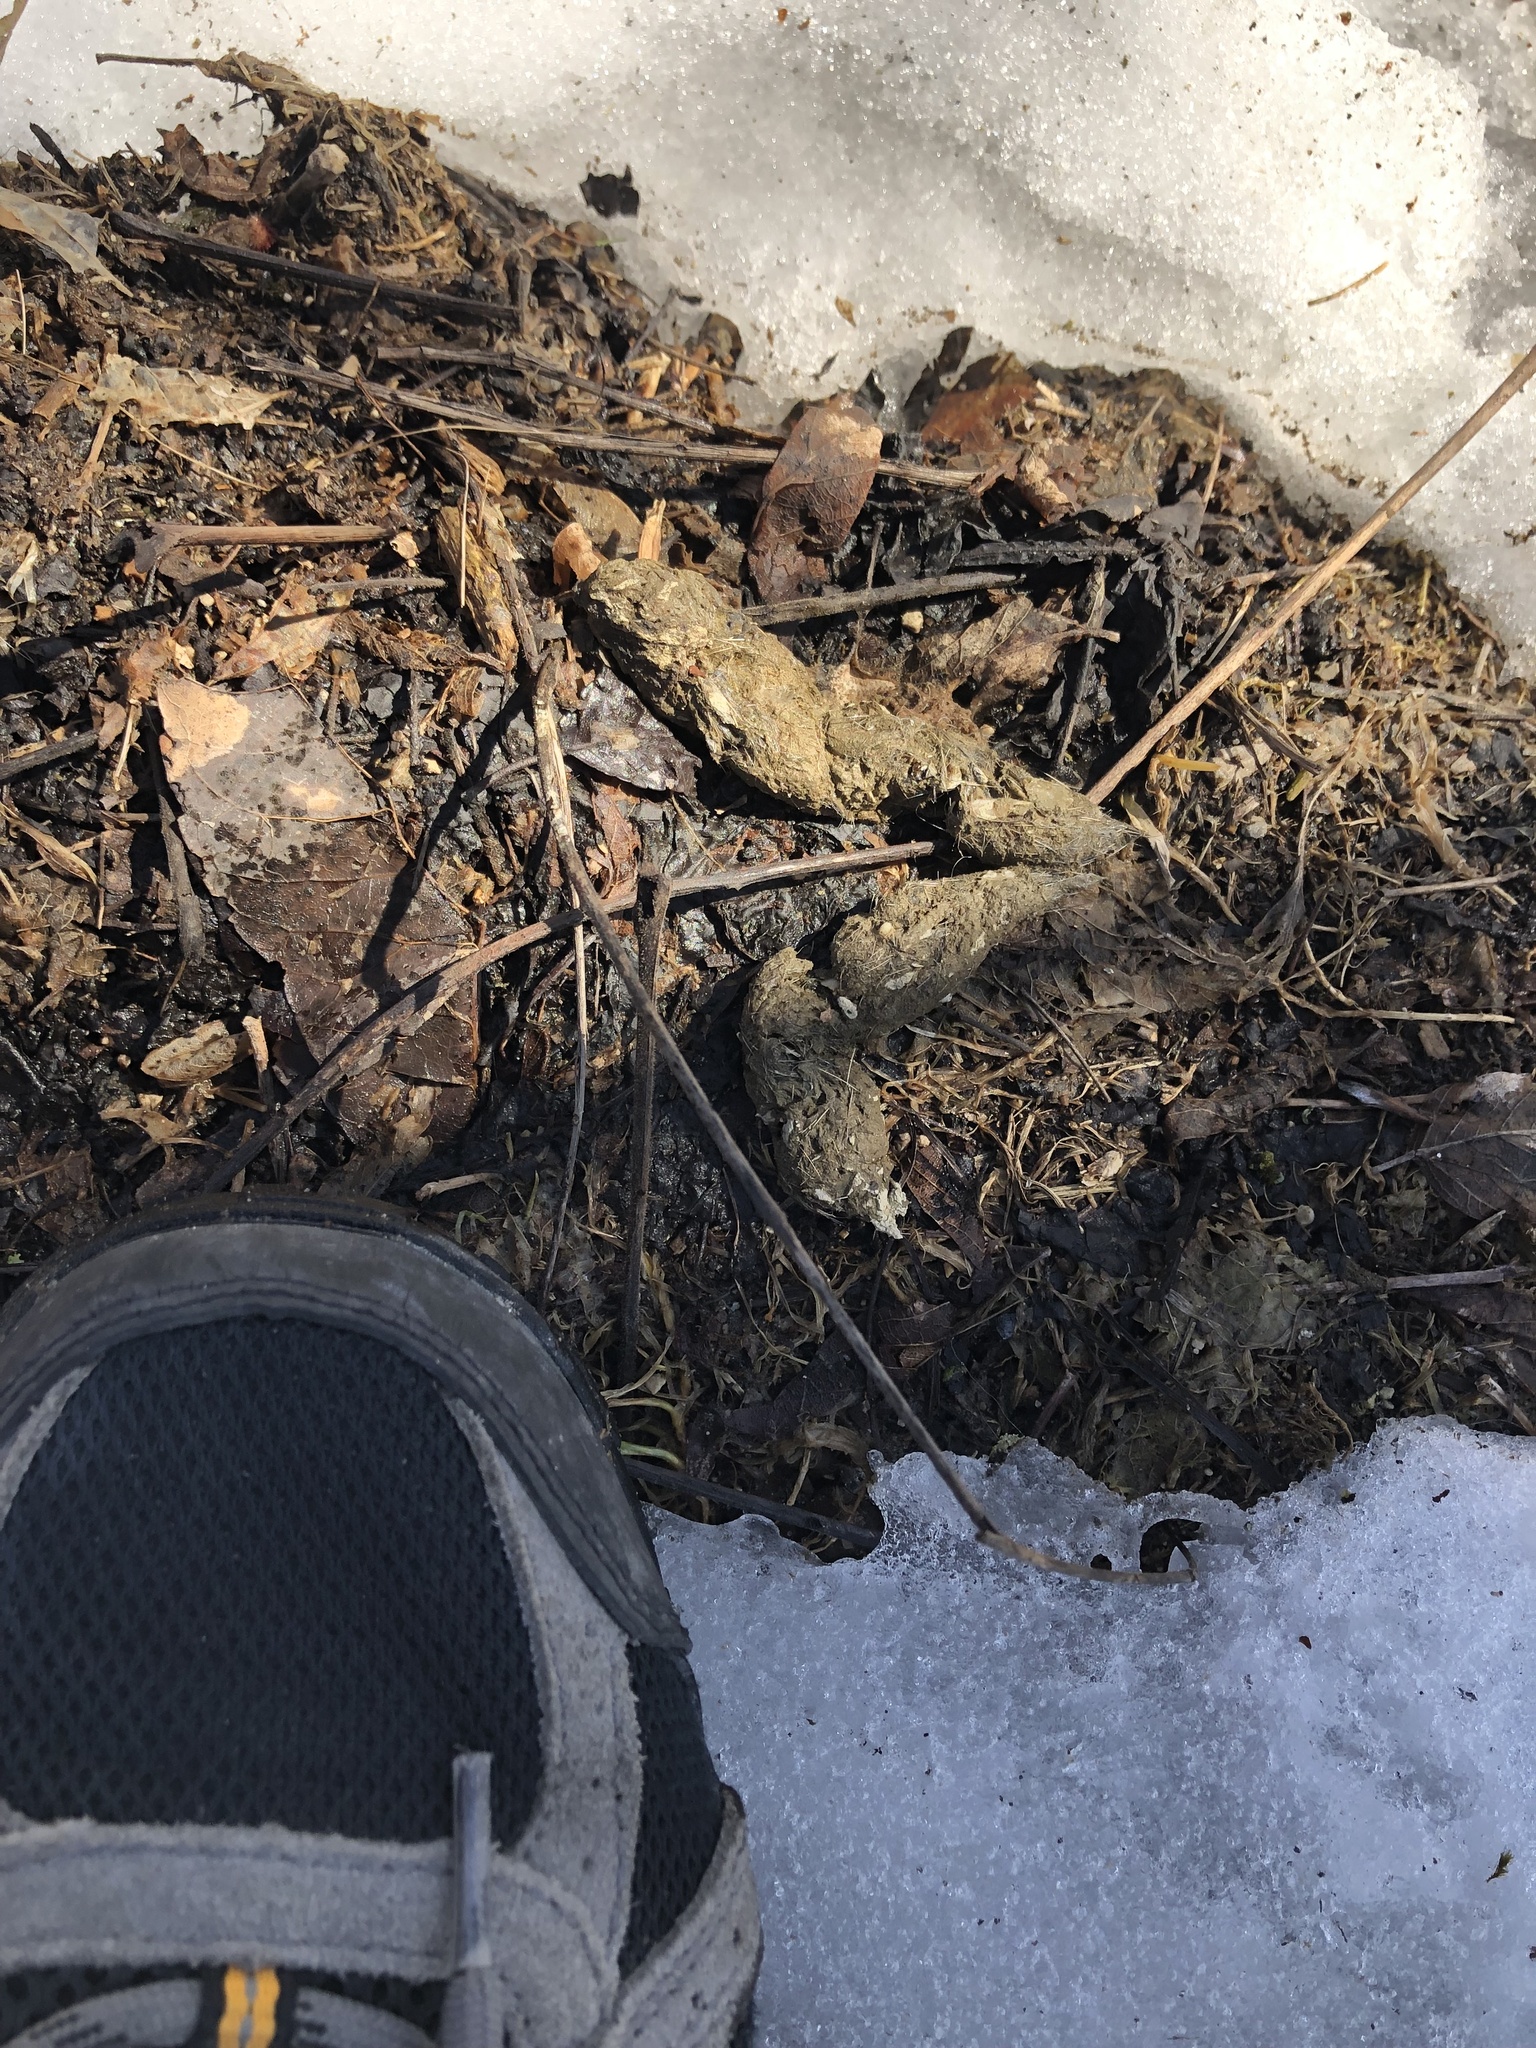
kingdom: Animalia
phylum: Chordata
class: Mammalia
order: Carnivora
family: Canidae
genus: Canis
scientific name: Canis latrans
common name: Coyote
